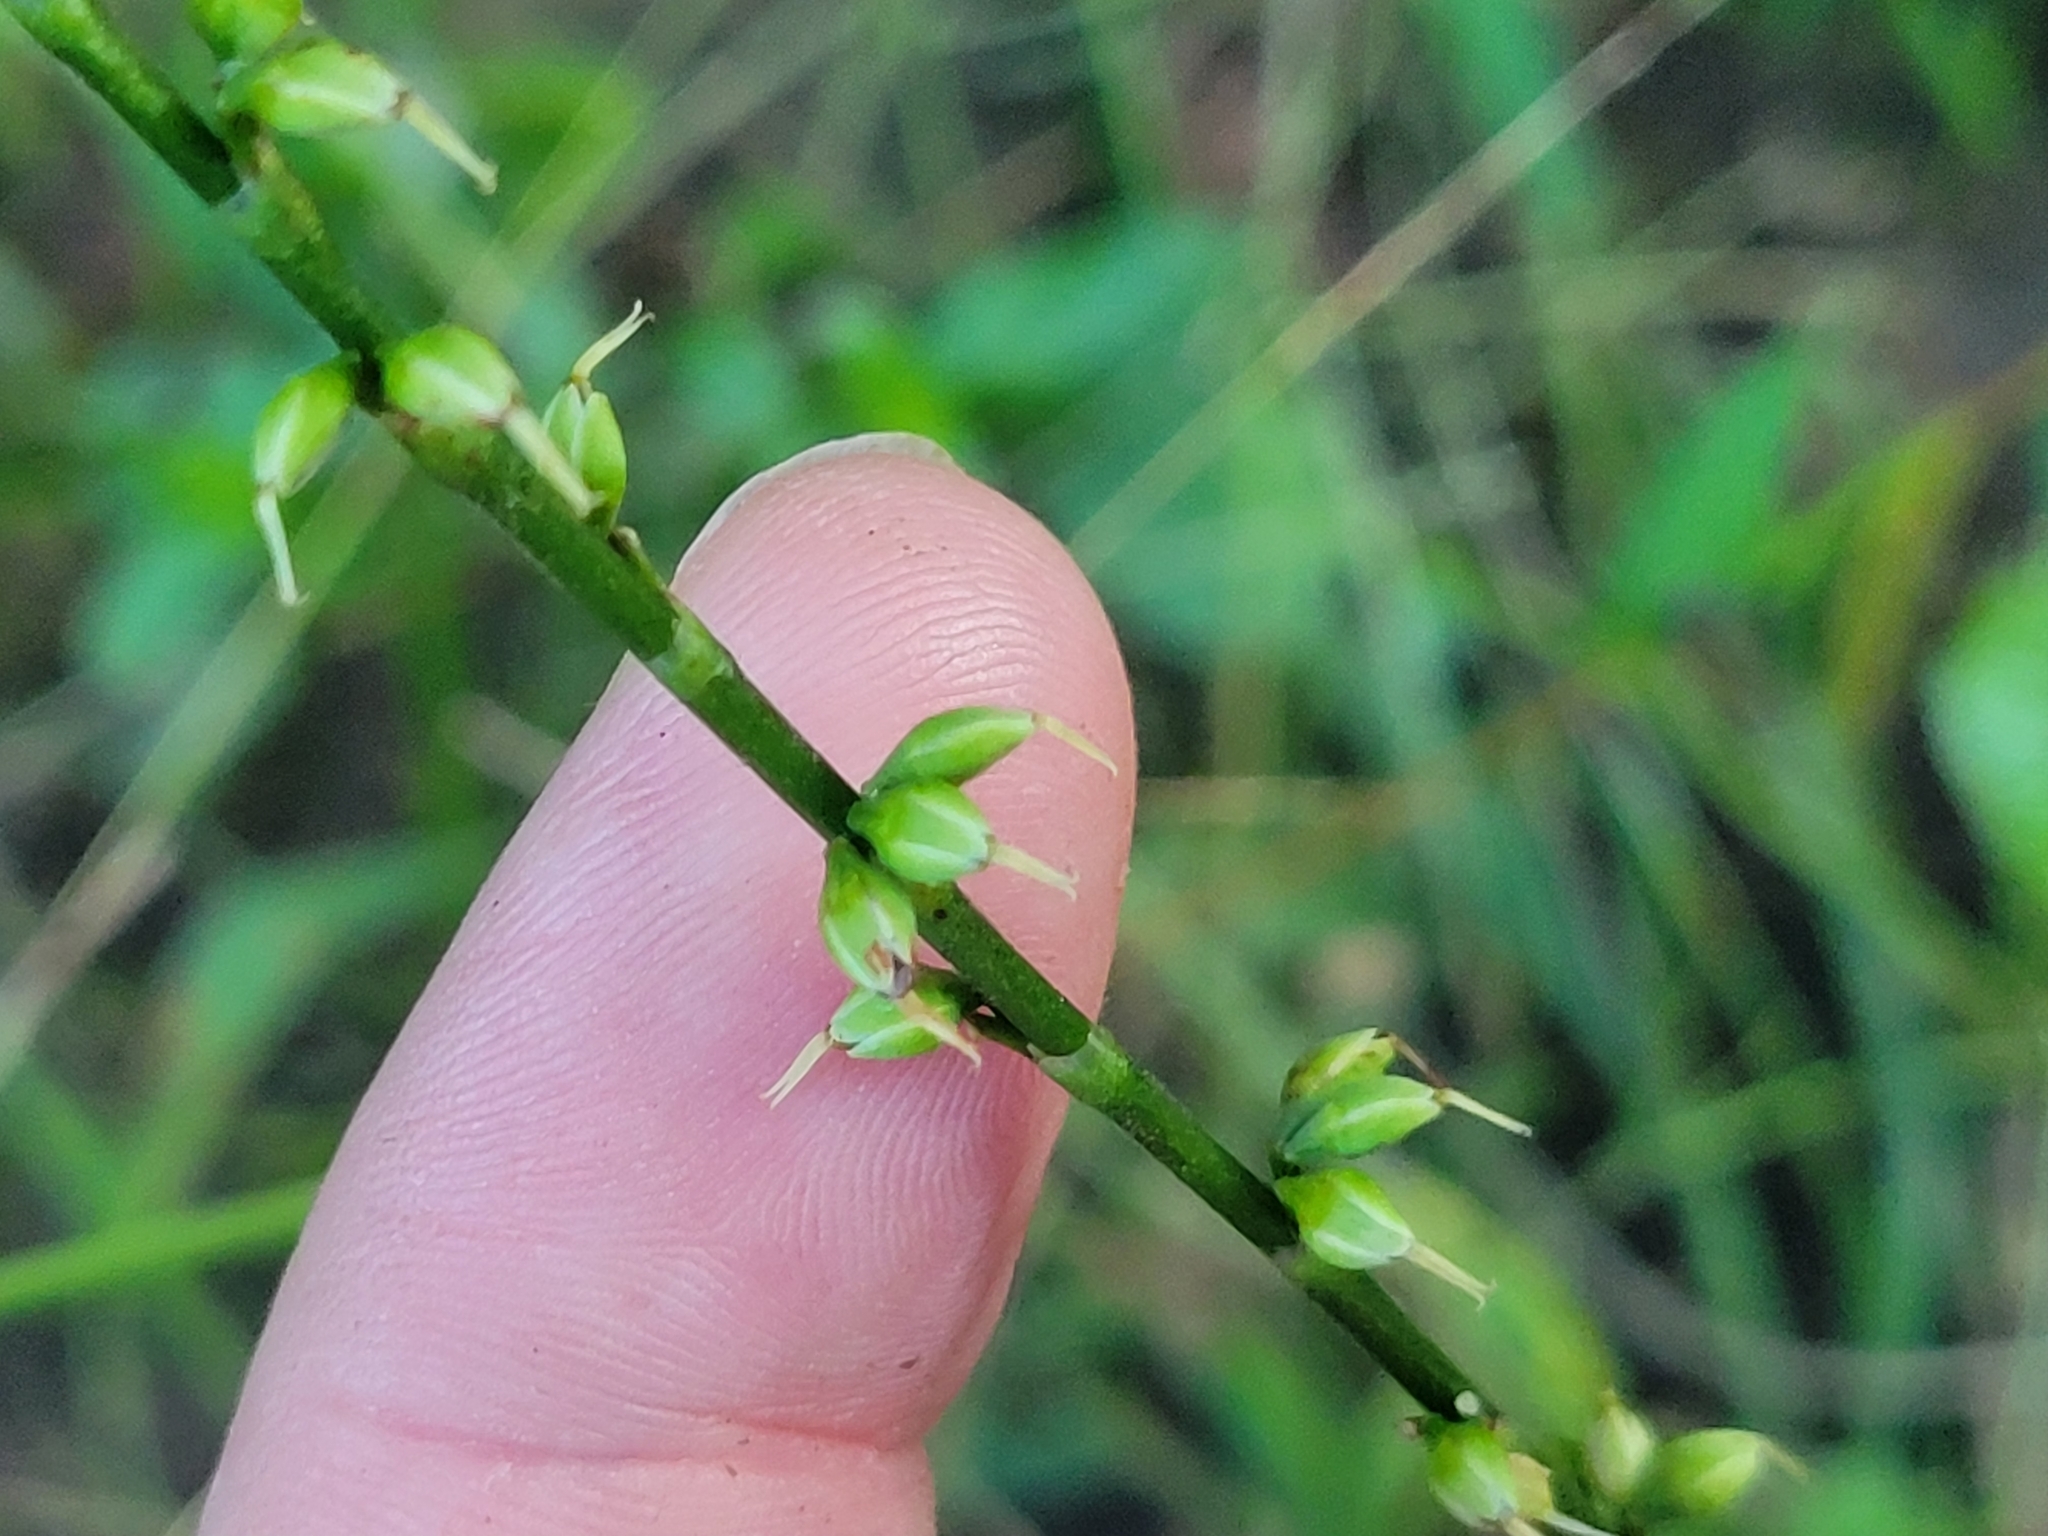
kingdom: Plantae
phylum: Tracheophyta
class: Magnoliopsida
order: Caryophyllales
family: Polygonaceae
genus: Persicaria
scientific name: Persicaria virginiana
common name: Jumpseed
